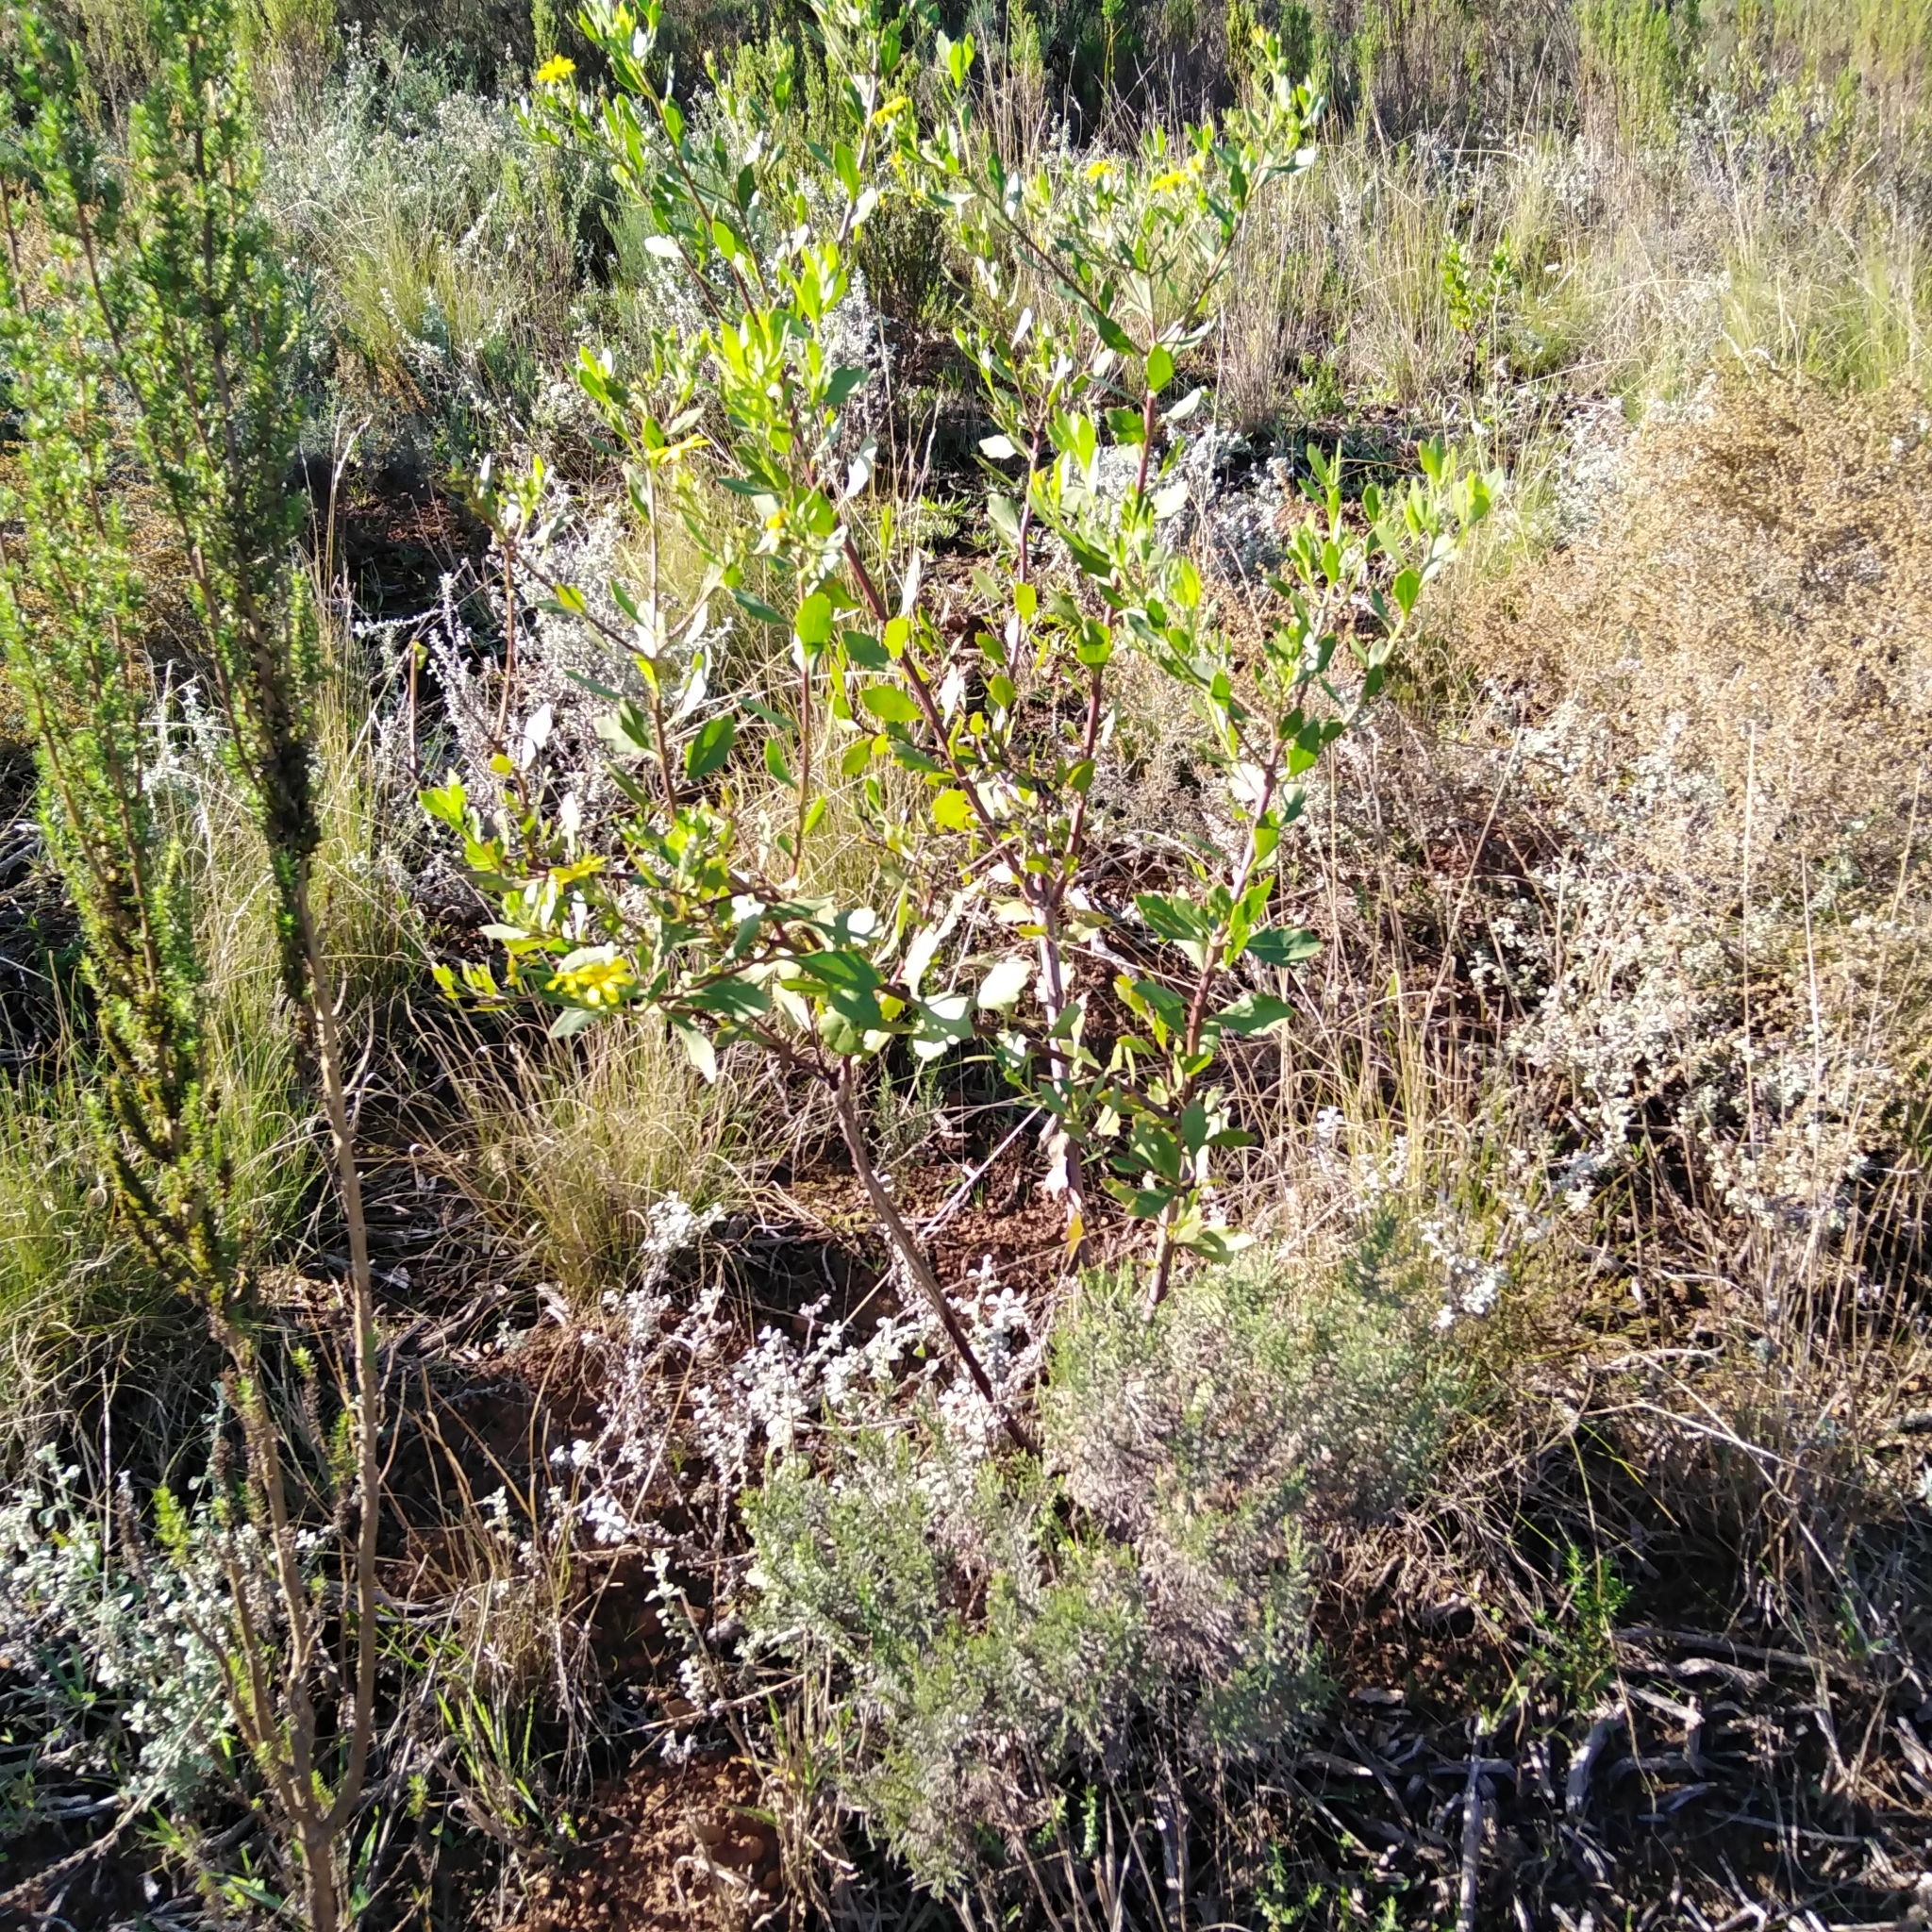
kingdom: Plantae
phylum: Tracheophyta
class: Magnoliopsida
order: Asterales
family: Asteraceae
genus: Osteospermum
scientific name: Osteospermum moniliferum
